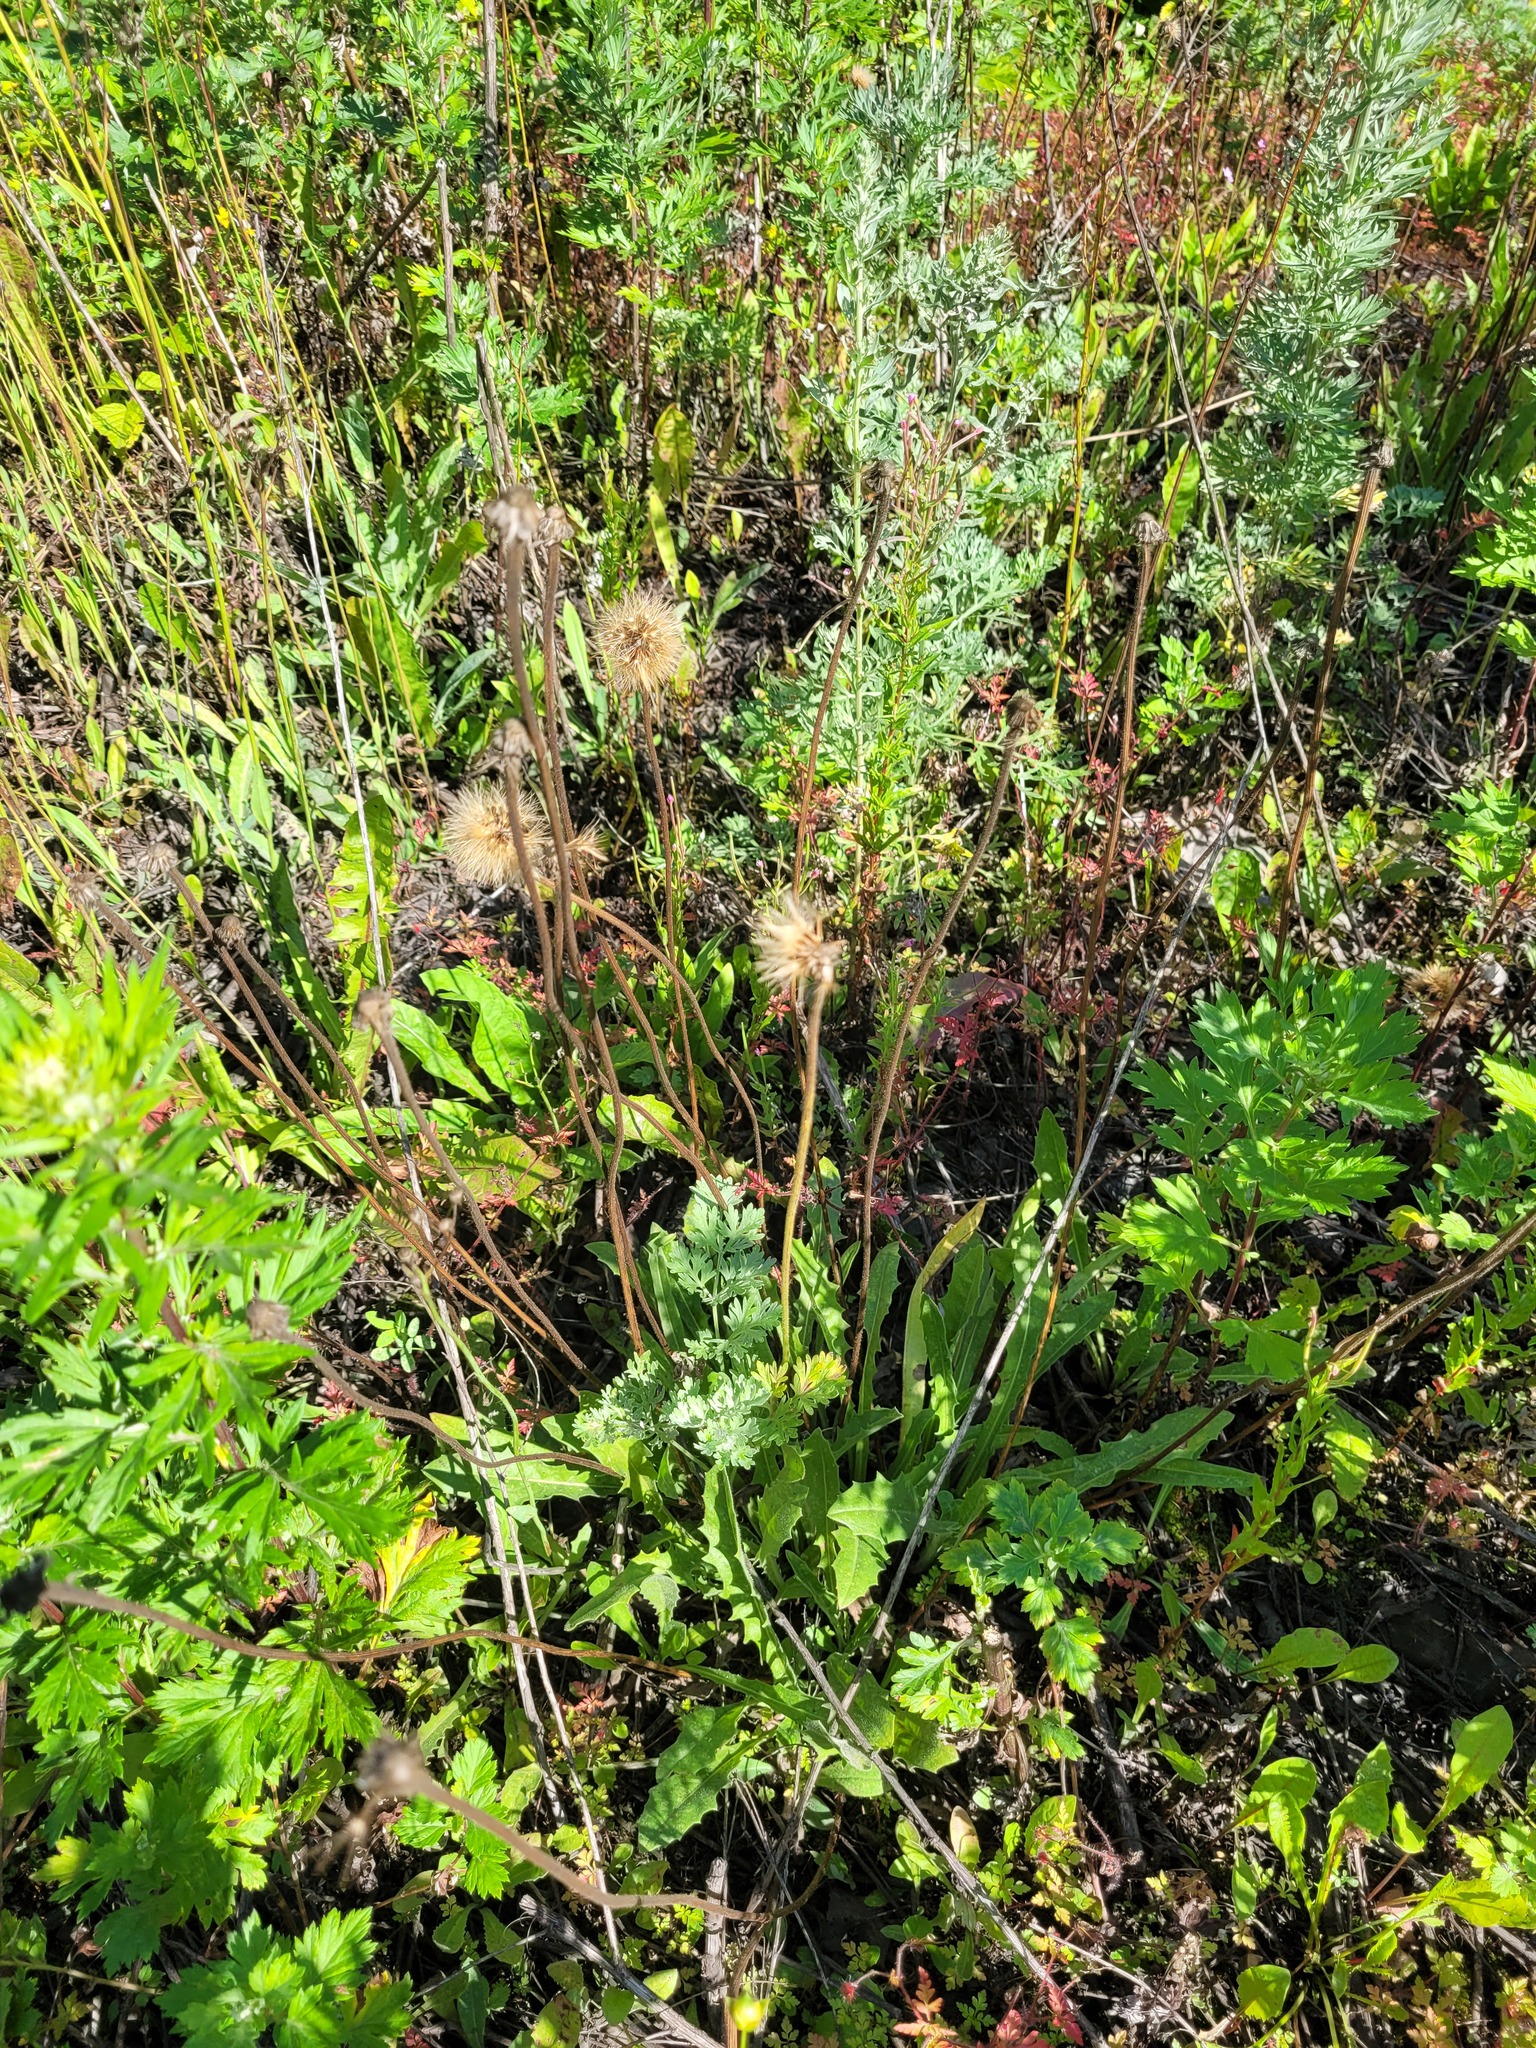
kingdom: Plantae
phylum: Tracheophyta
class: Magnoliopsida
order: Asterales
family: Asteraceae
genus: Leontodon
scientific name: Leontodon hispidus
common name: Rough hawkbit
